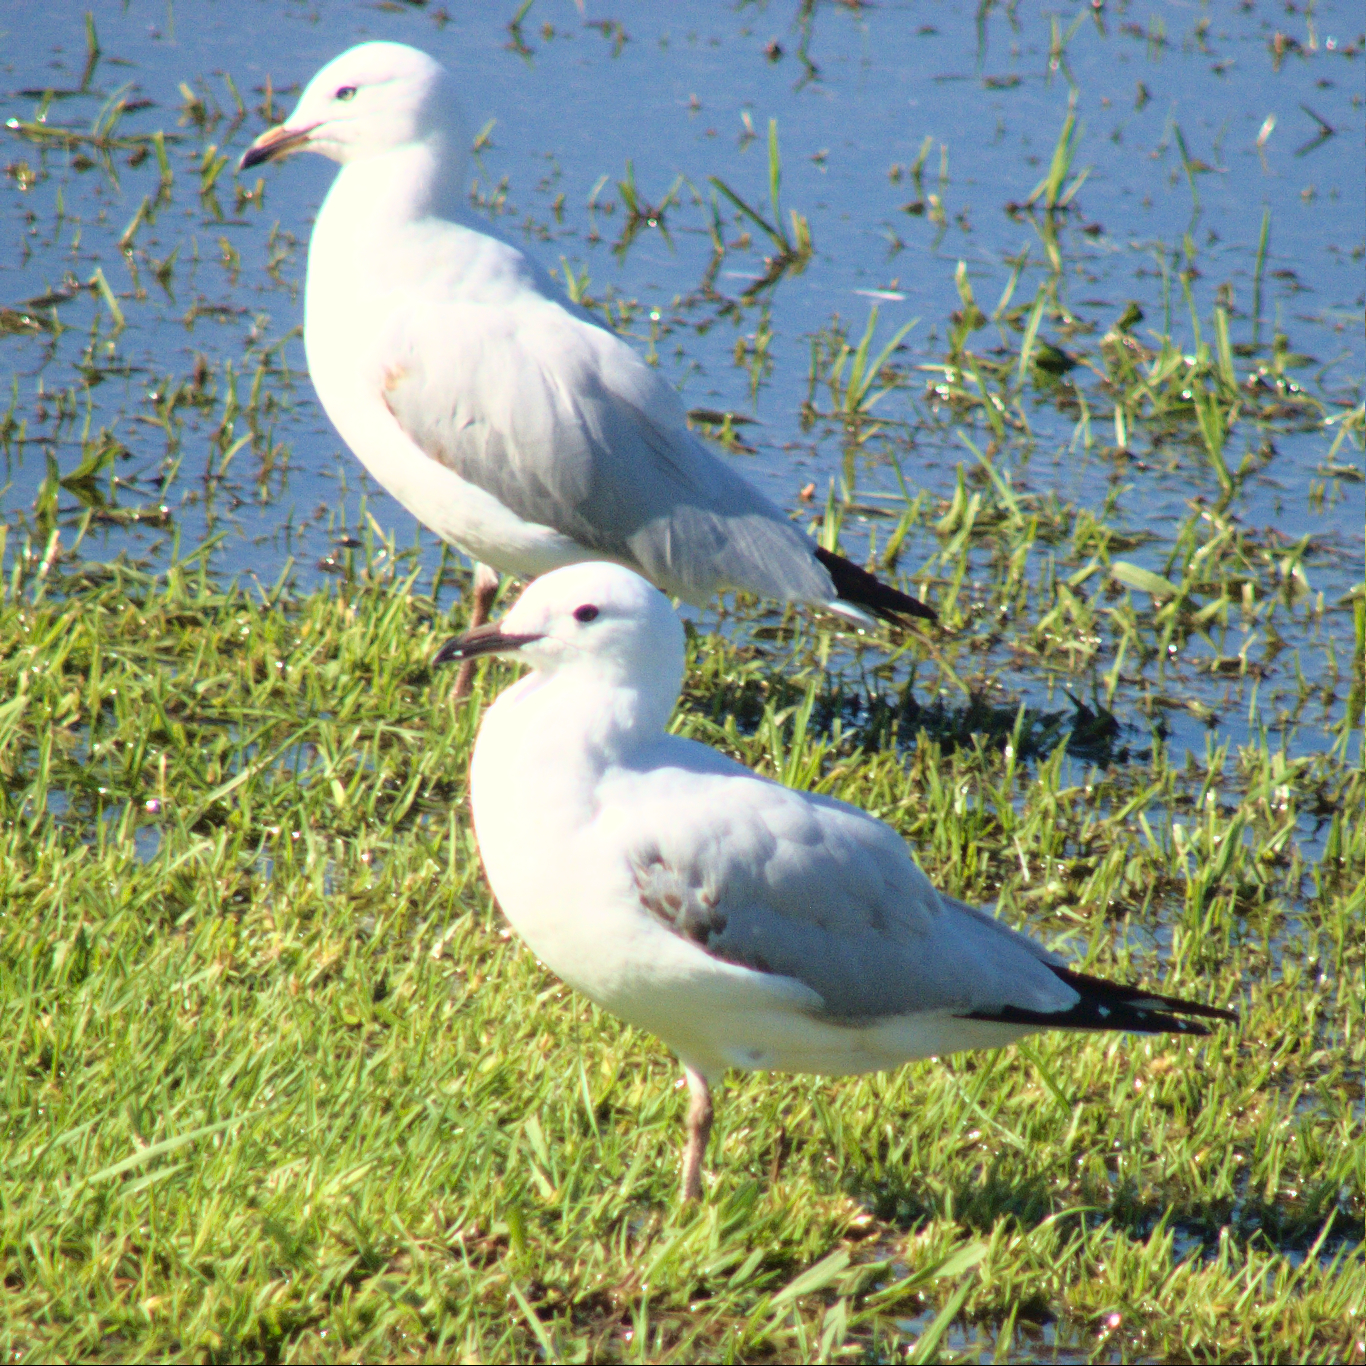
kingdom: Animalia
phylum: Chordata
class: Aves
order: Charadriiformes
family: Laridae
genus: Chroicocephalus
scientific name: Chroicocephalus novaehollandiae
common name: Silver gull
